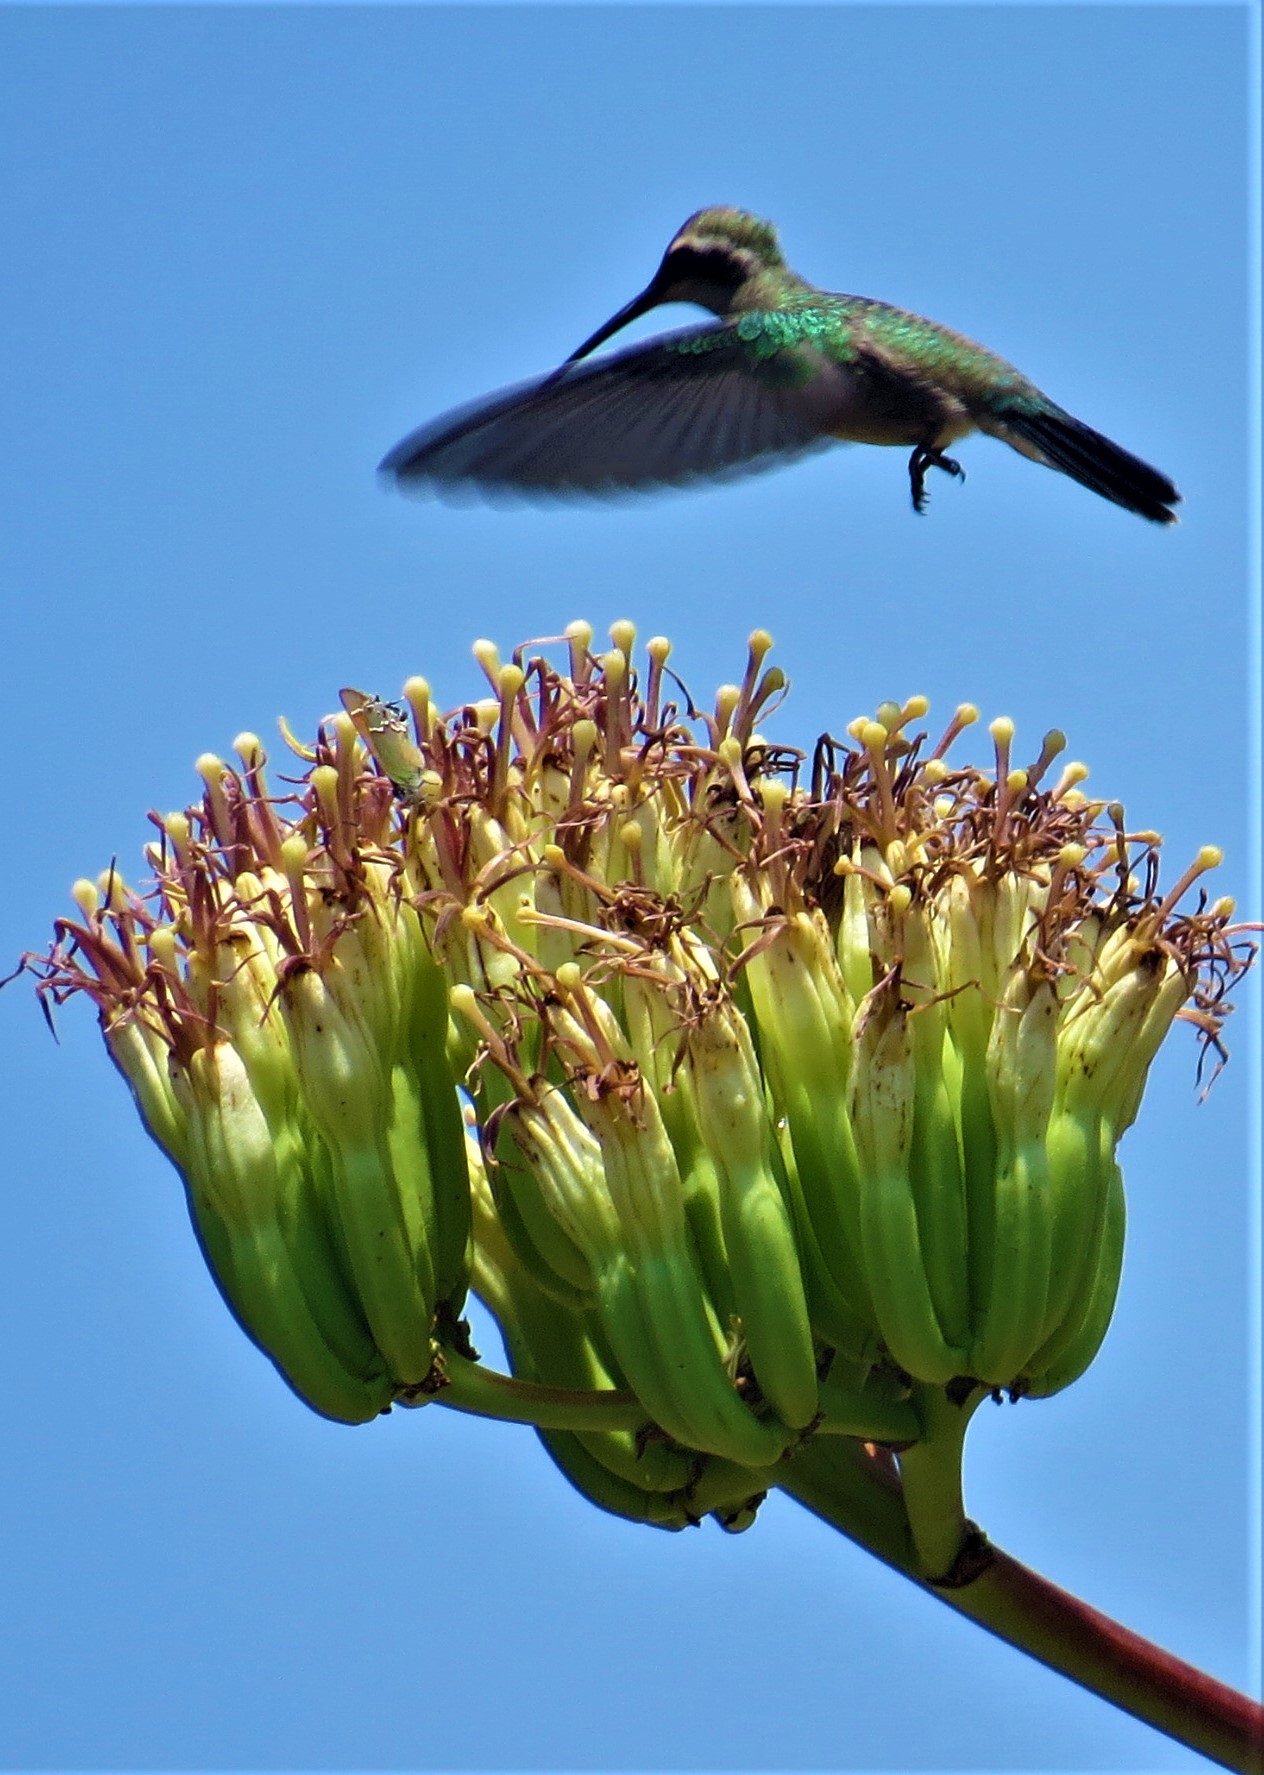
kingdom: Animalia
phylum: Chordata
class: Aves
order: Apodiformes
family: Trochilidae
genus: Cynanthus
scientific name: Cynanthus latirostris
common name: Broad-billed hummingbird
